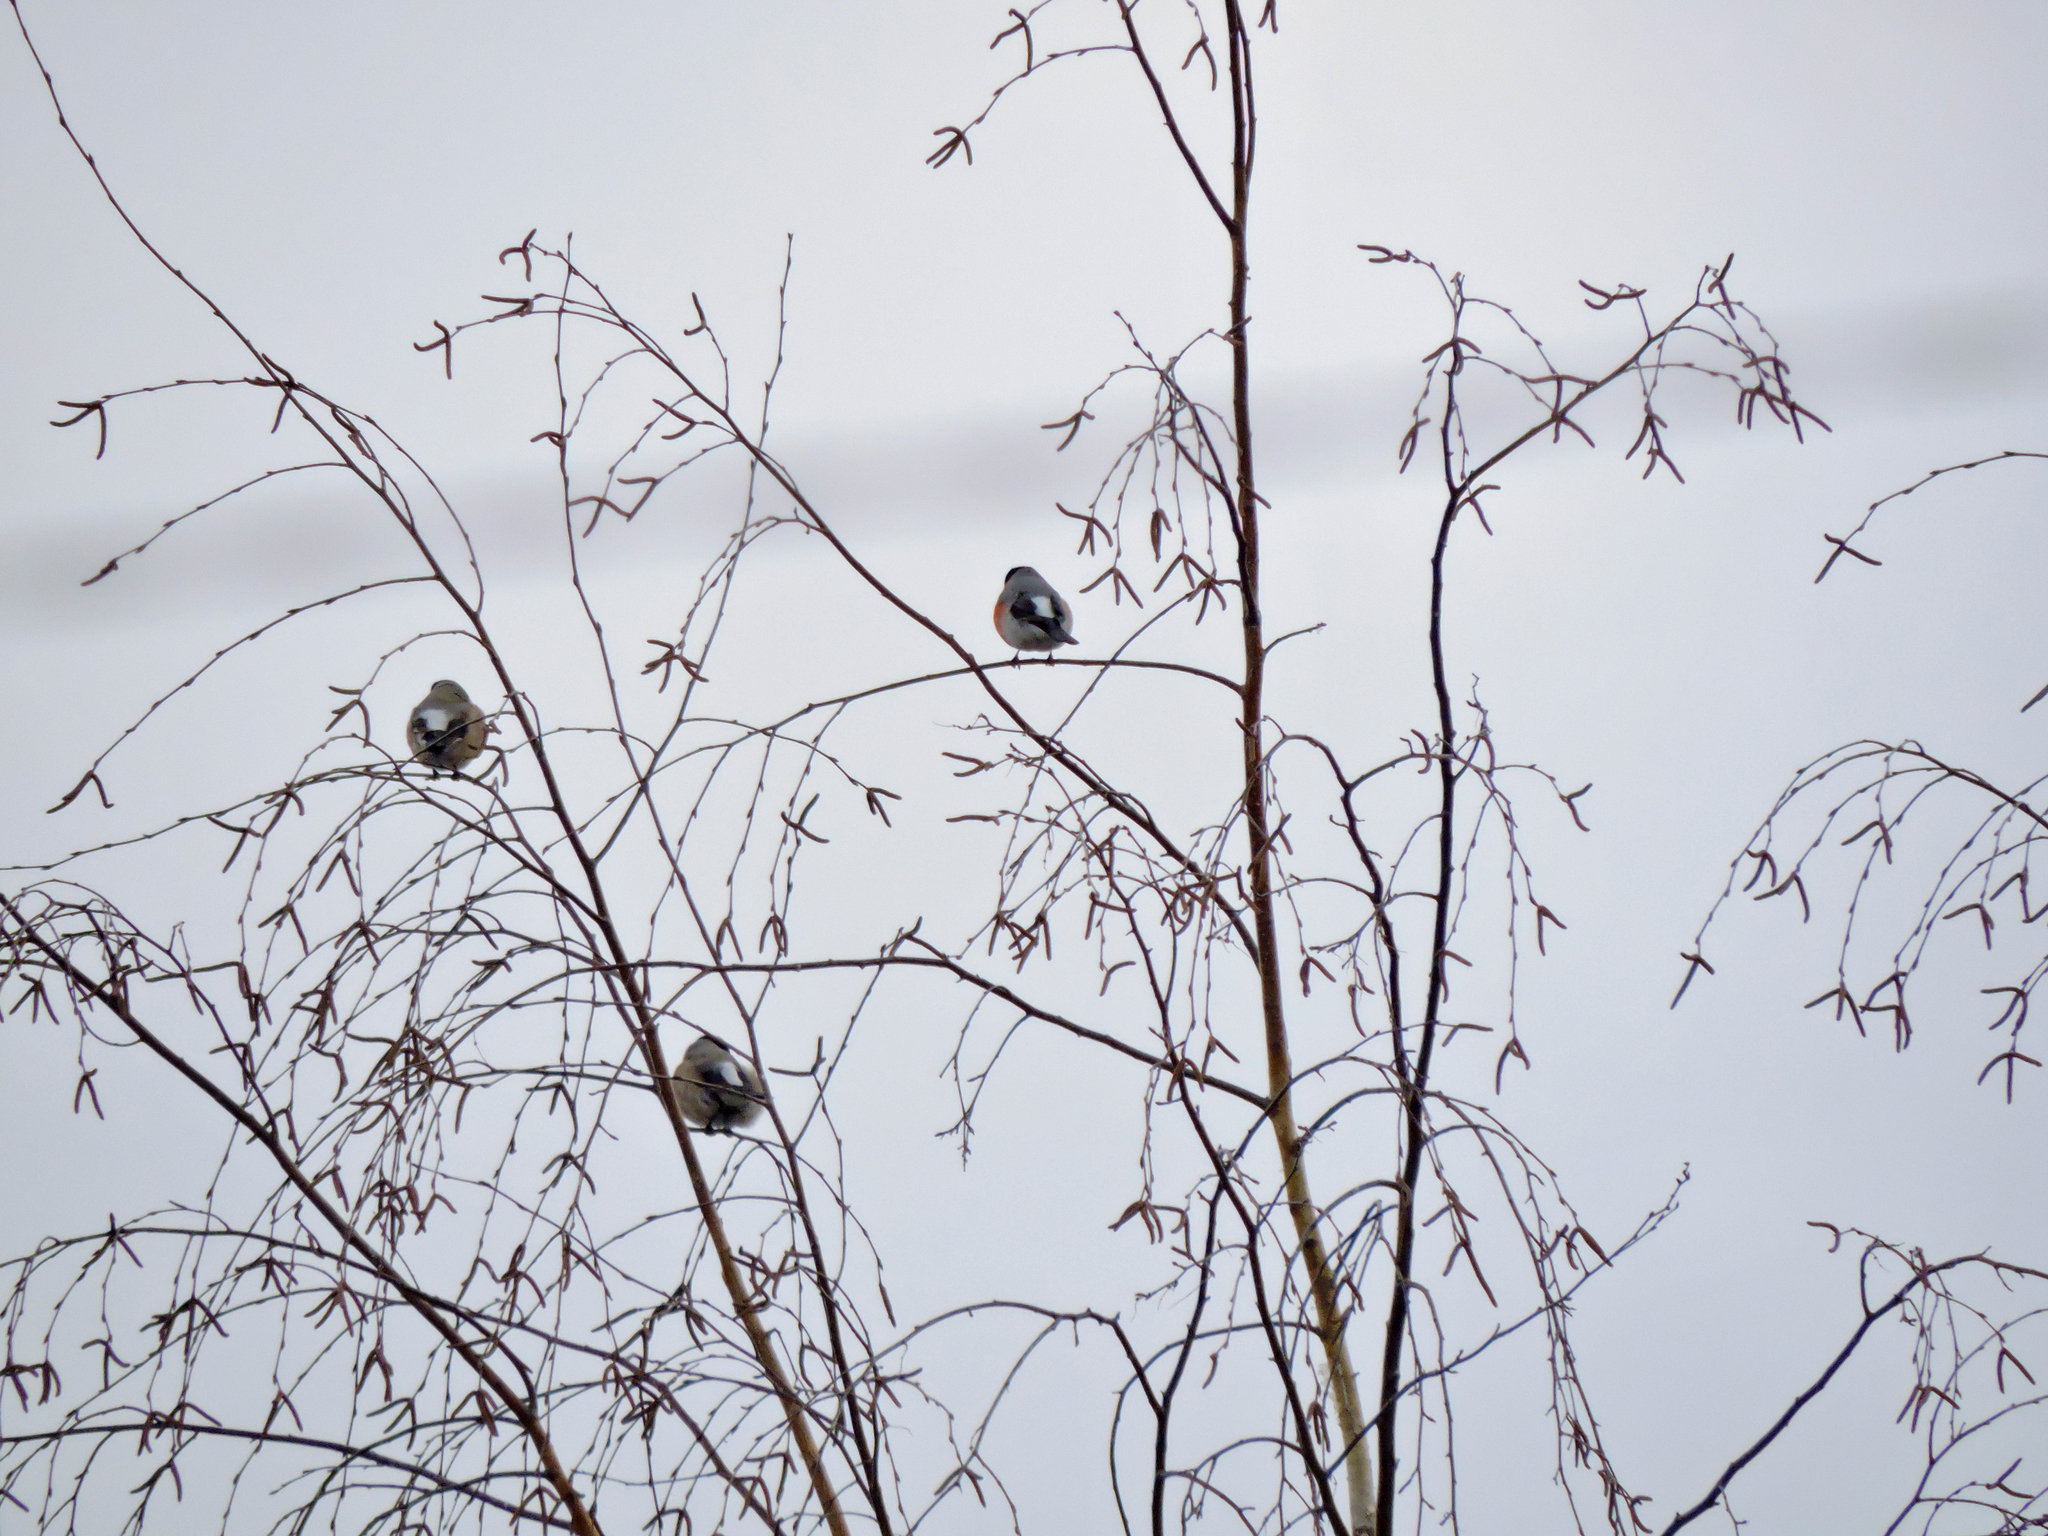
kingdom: Animalia
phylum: Chordata
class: Aves
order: Passeriformes
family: Fringillidae
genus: Pyrrhula
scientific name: Pyrrhula pyrrhula
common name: Eurasian bullfinch
